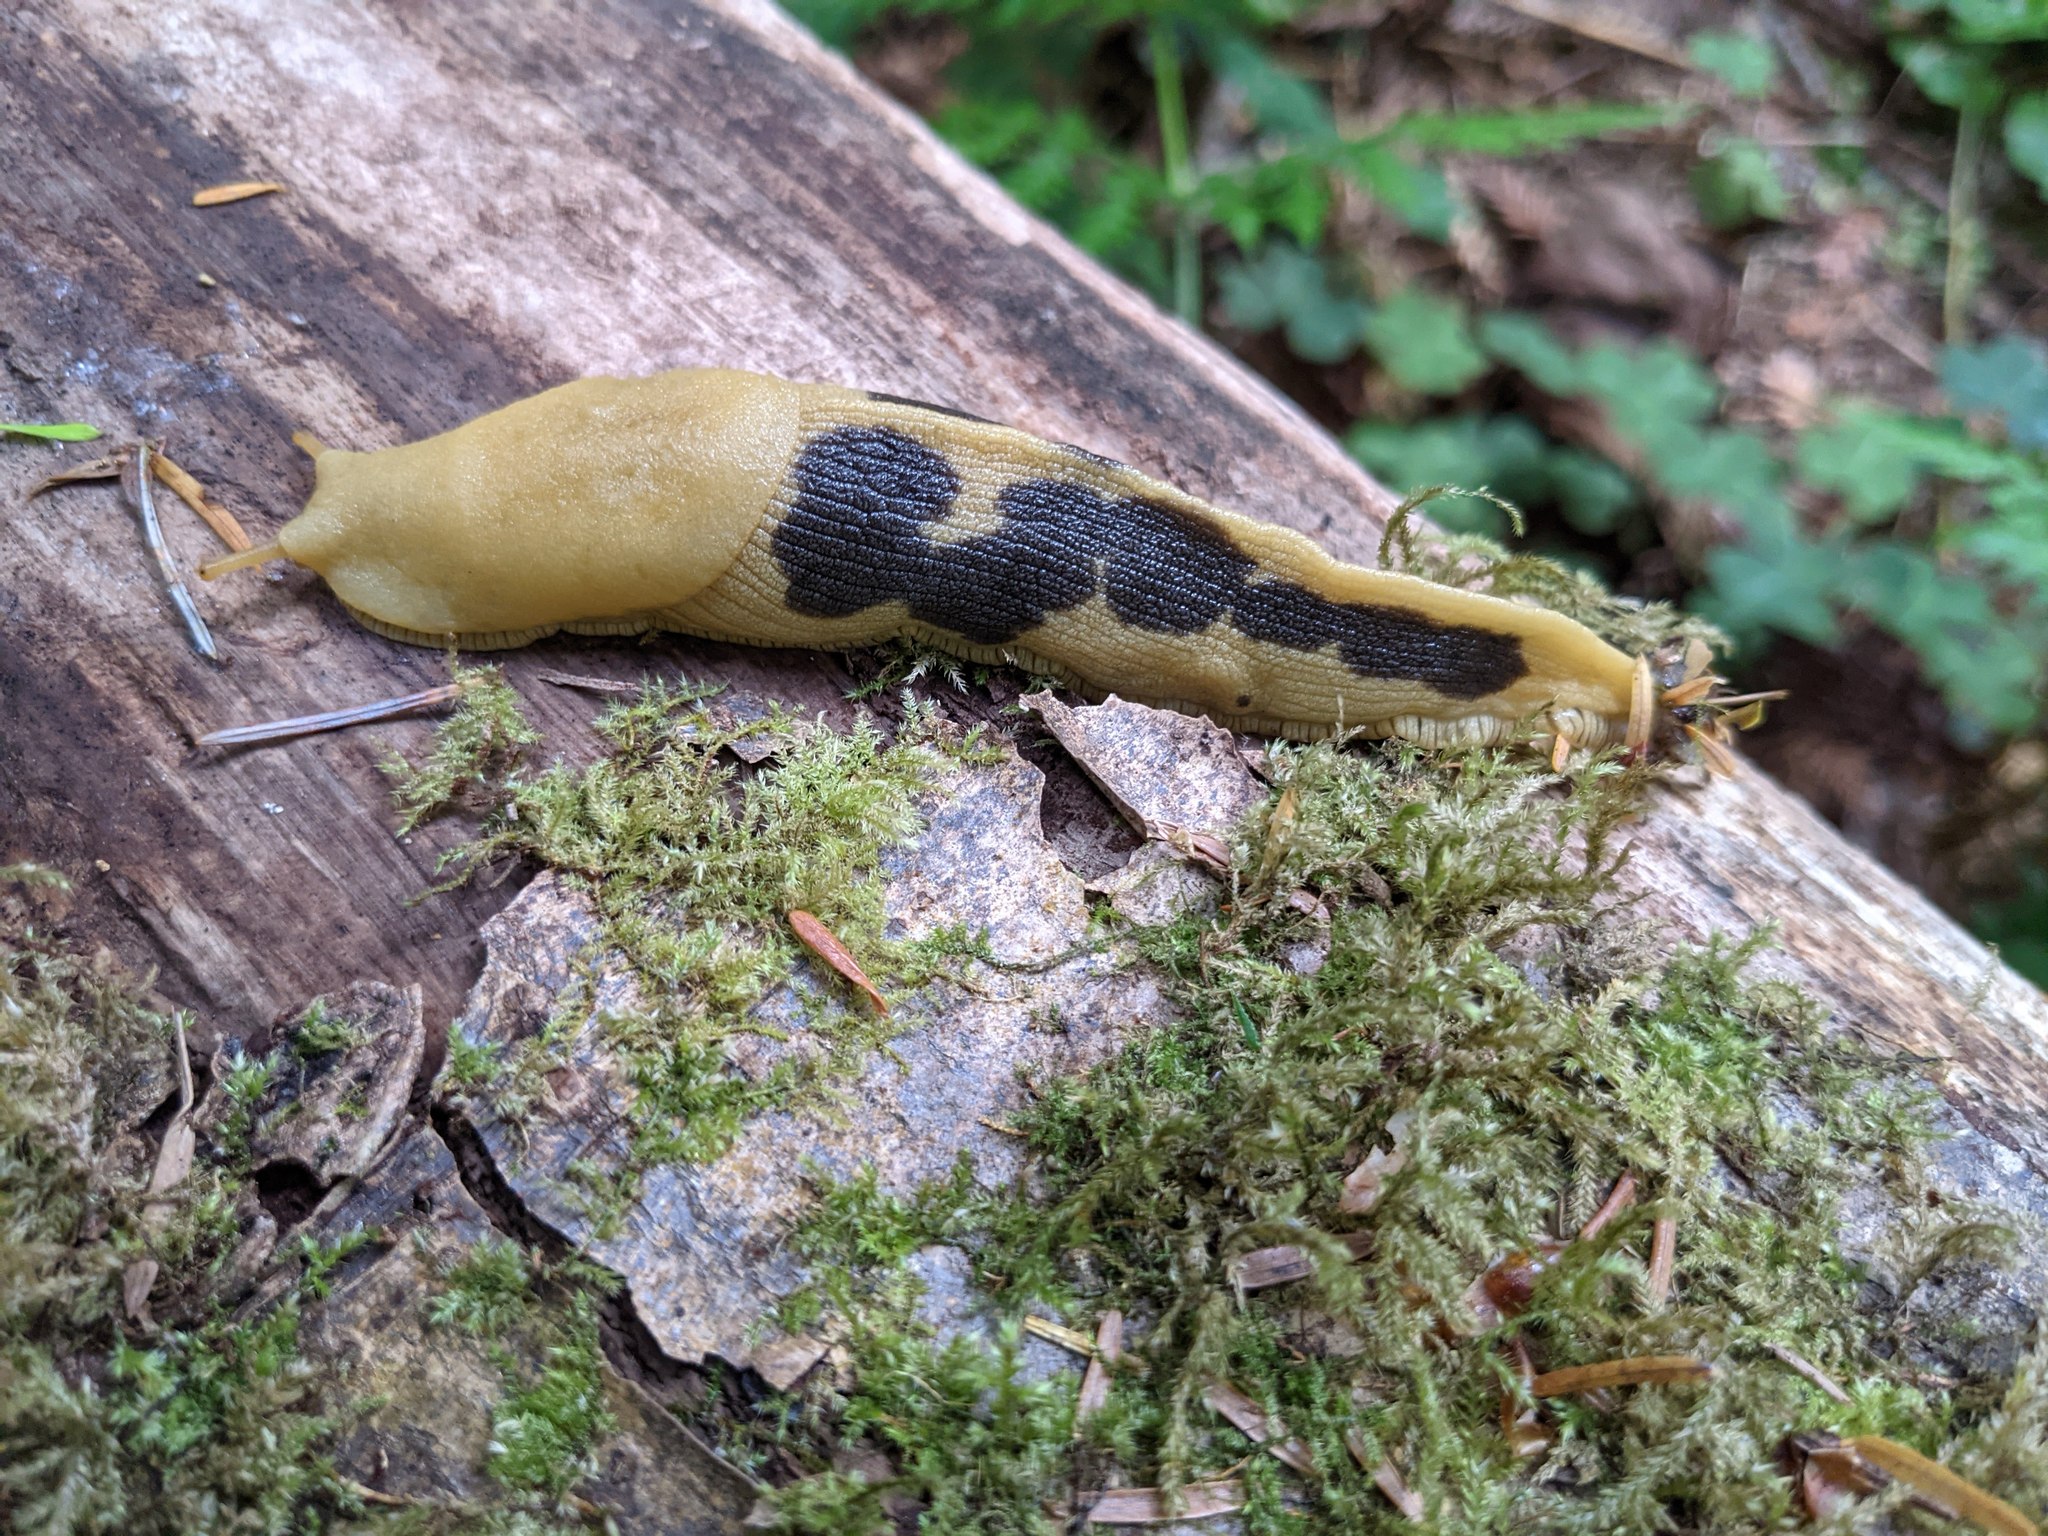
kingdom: Animalia
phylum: Mollusca
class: Gastropoda
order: Stylommatophora
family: Ariolimacidae
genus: Ariolimax
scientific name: Ariolimax columbianus
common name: Pacific banana slug
